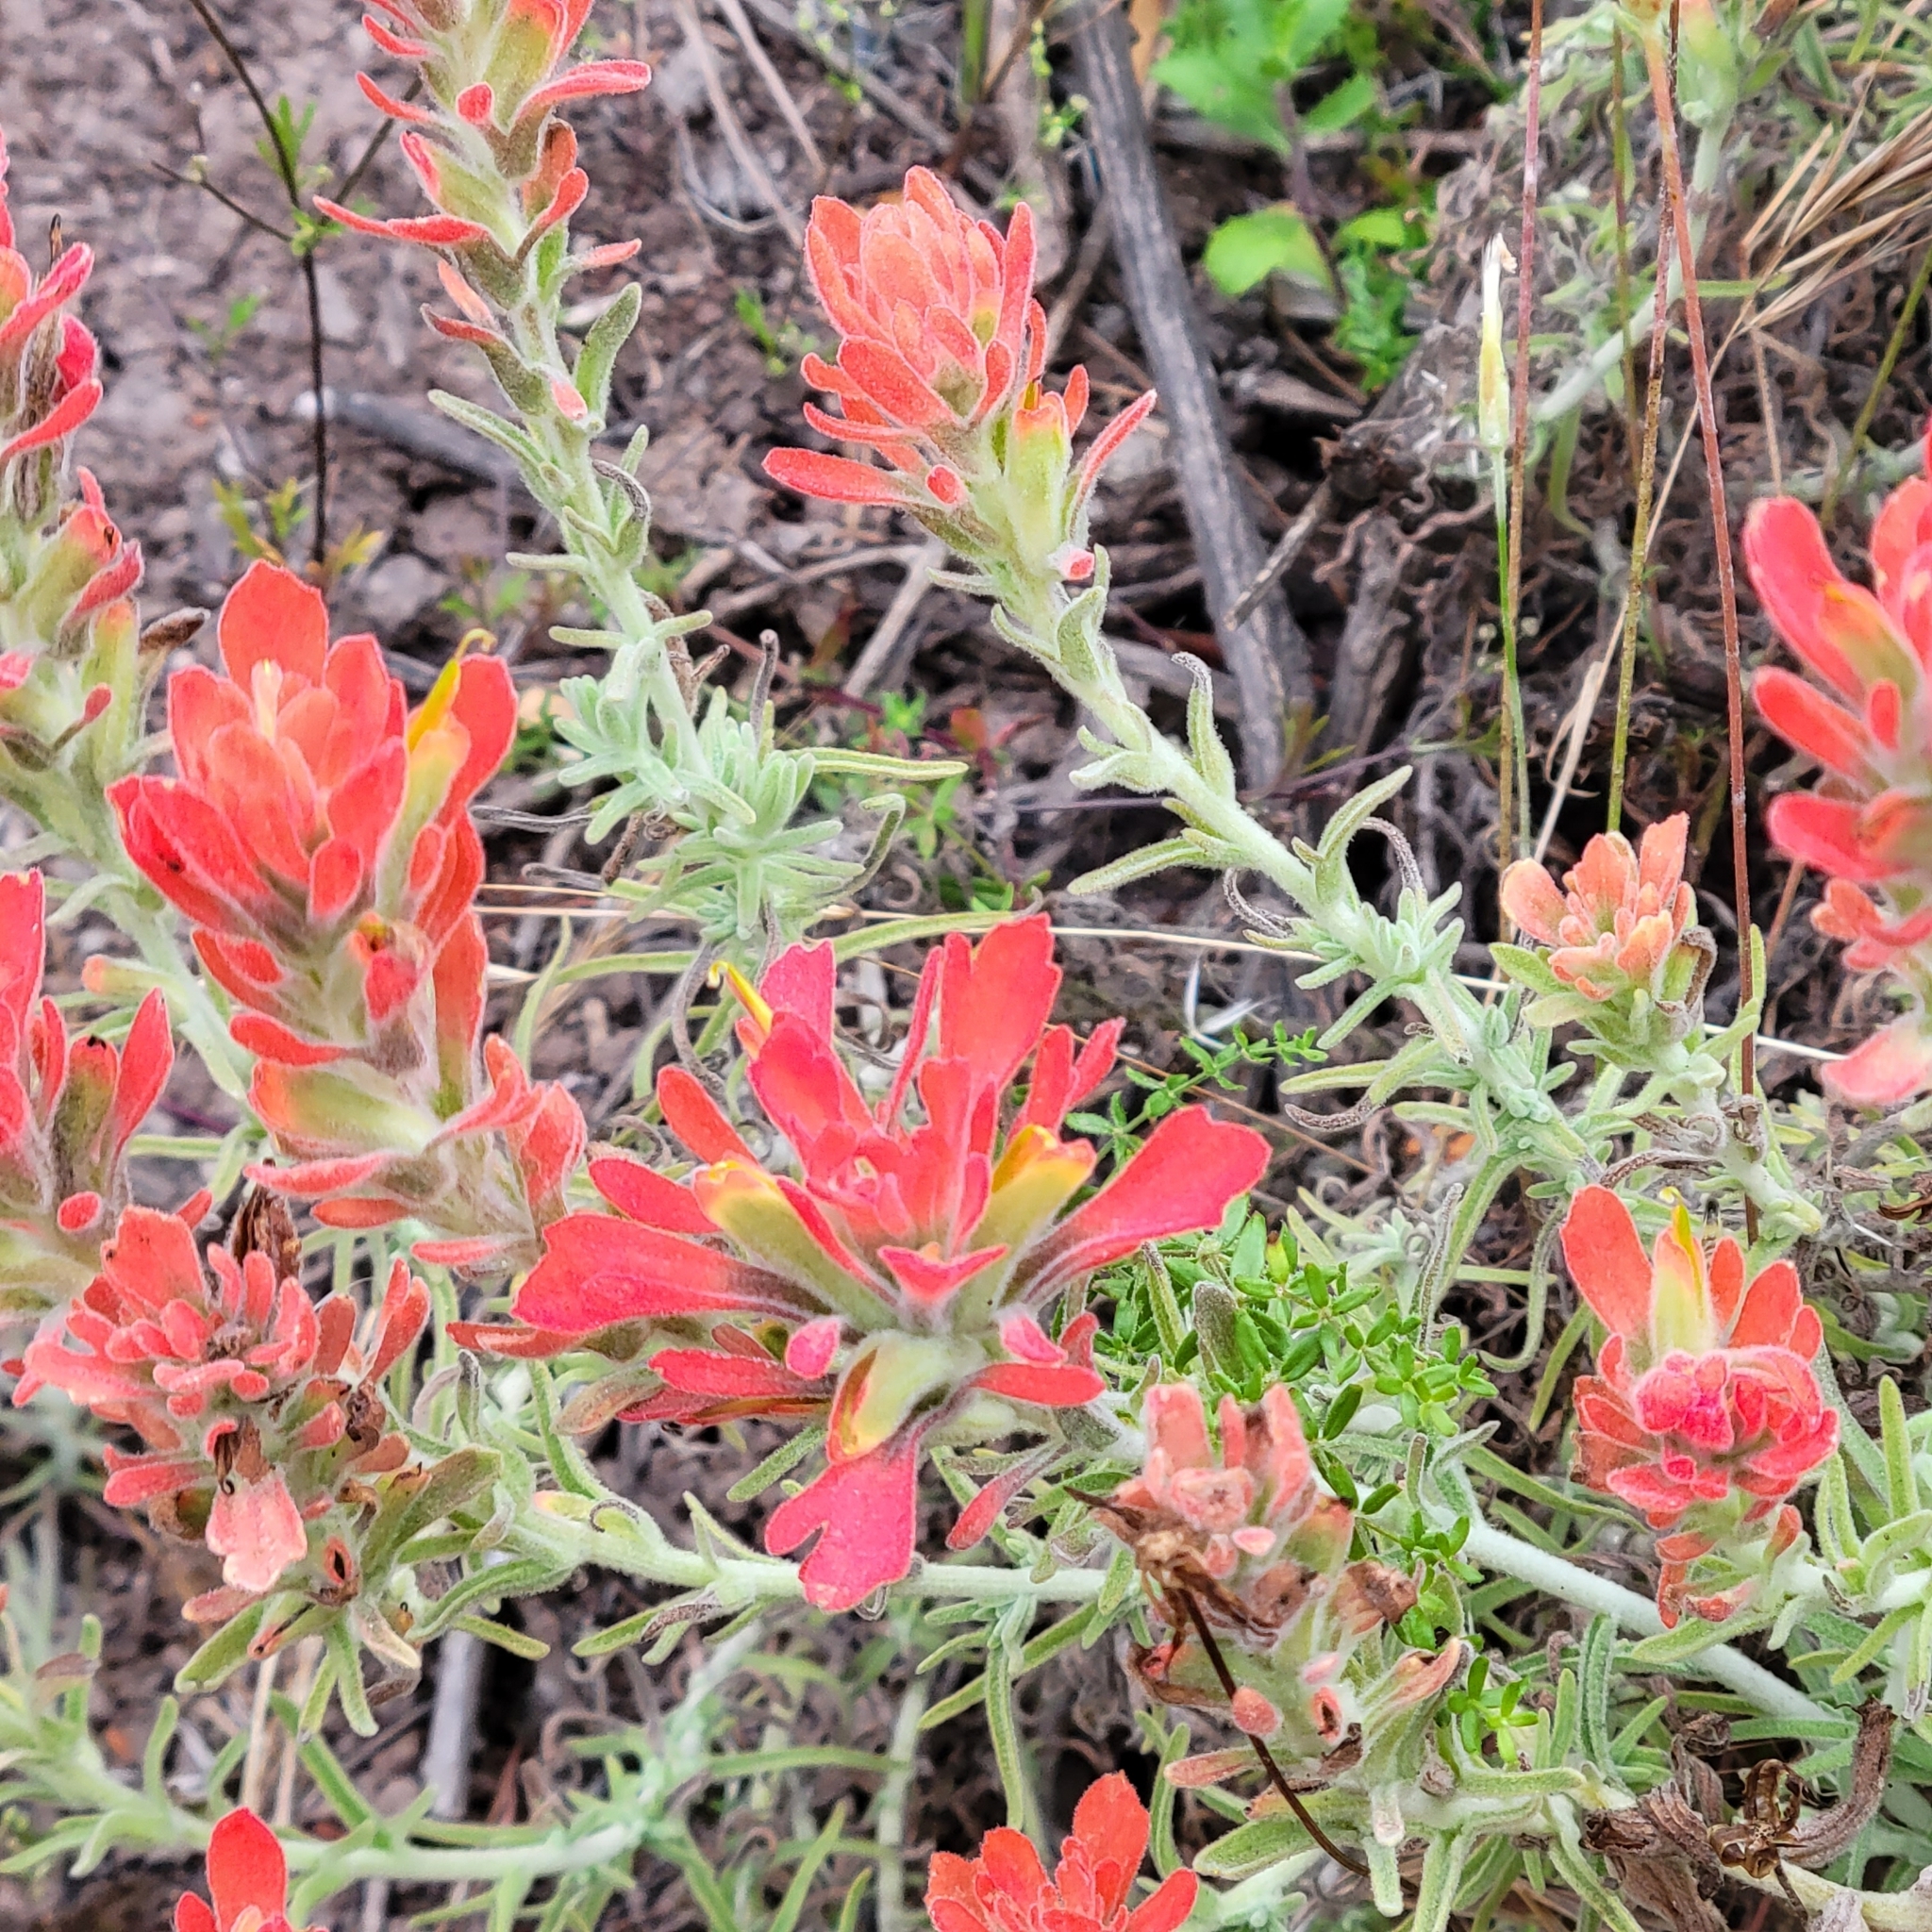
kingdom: Plantae
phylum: Tracheophyta
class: Magnoliopsida
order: Lamiales
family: Orobanchaceae
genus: Castilleja
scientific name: Castilleja foliolosa
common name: Woolly indian paintbrush
